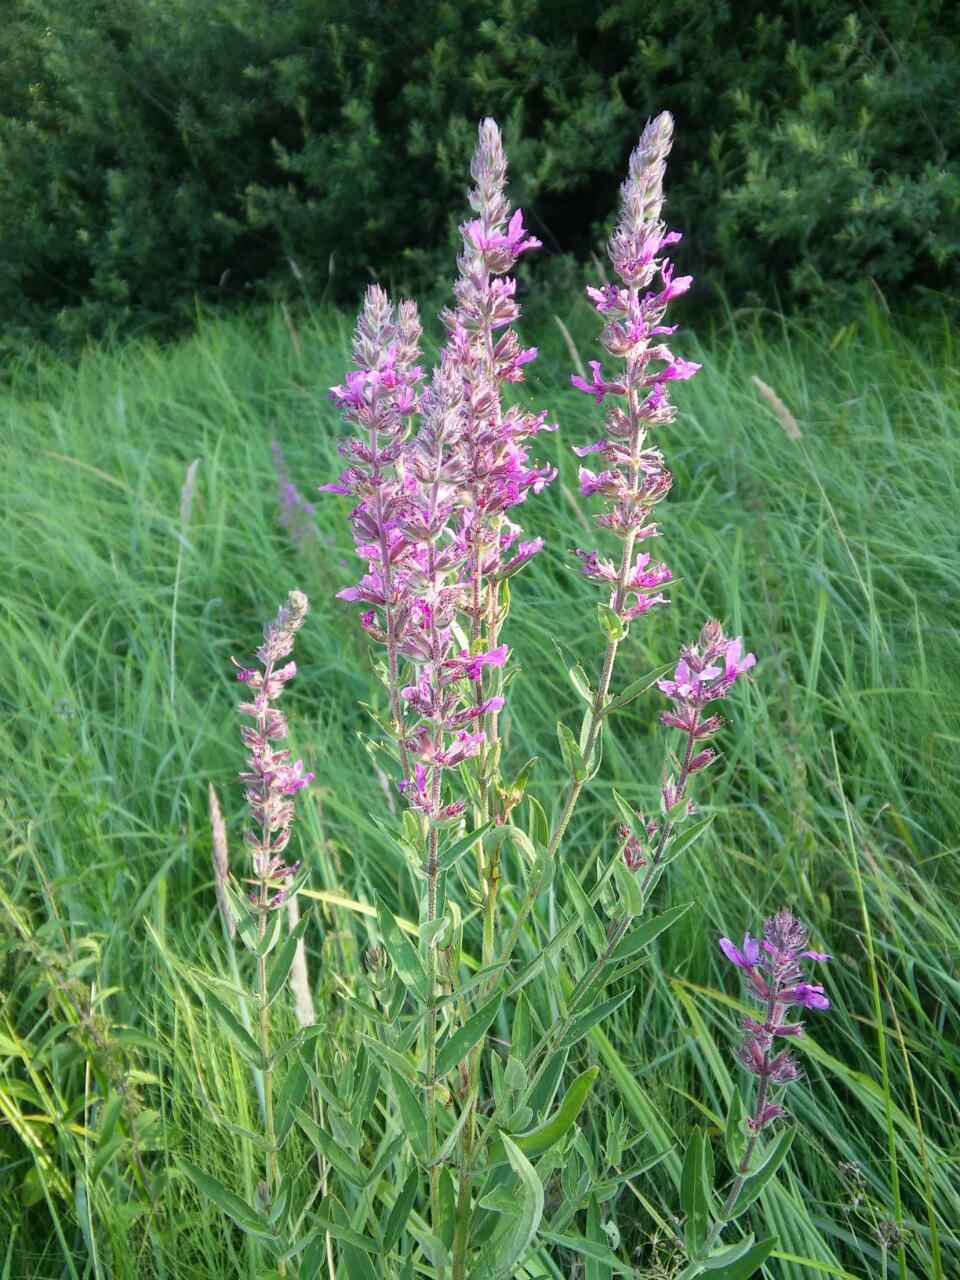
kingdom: Plantae
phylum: Tracheophyta
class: Magnoliopsida
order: Myrtales
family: Lythraceae
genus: Lythrum
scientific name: Lythrum salicaria
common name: Purple loosestrife
